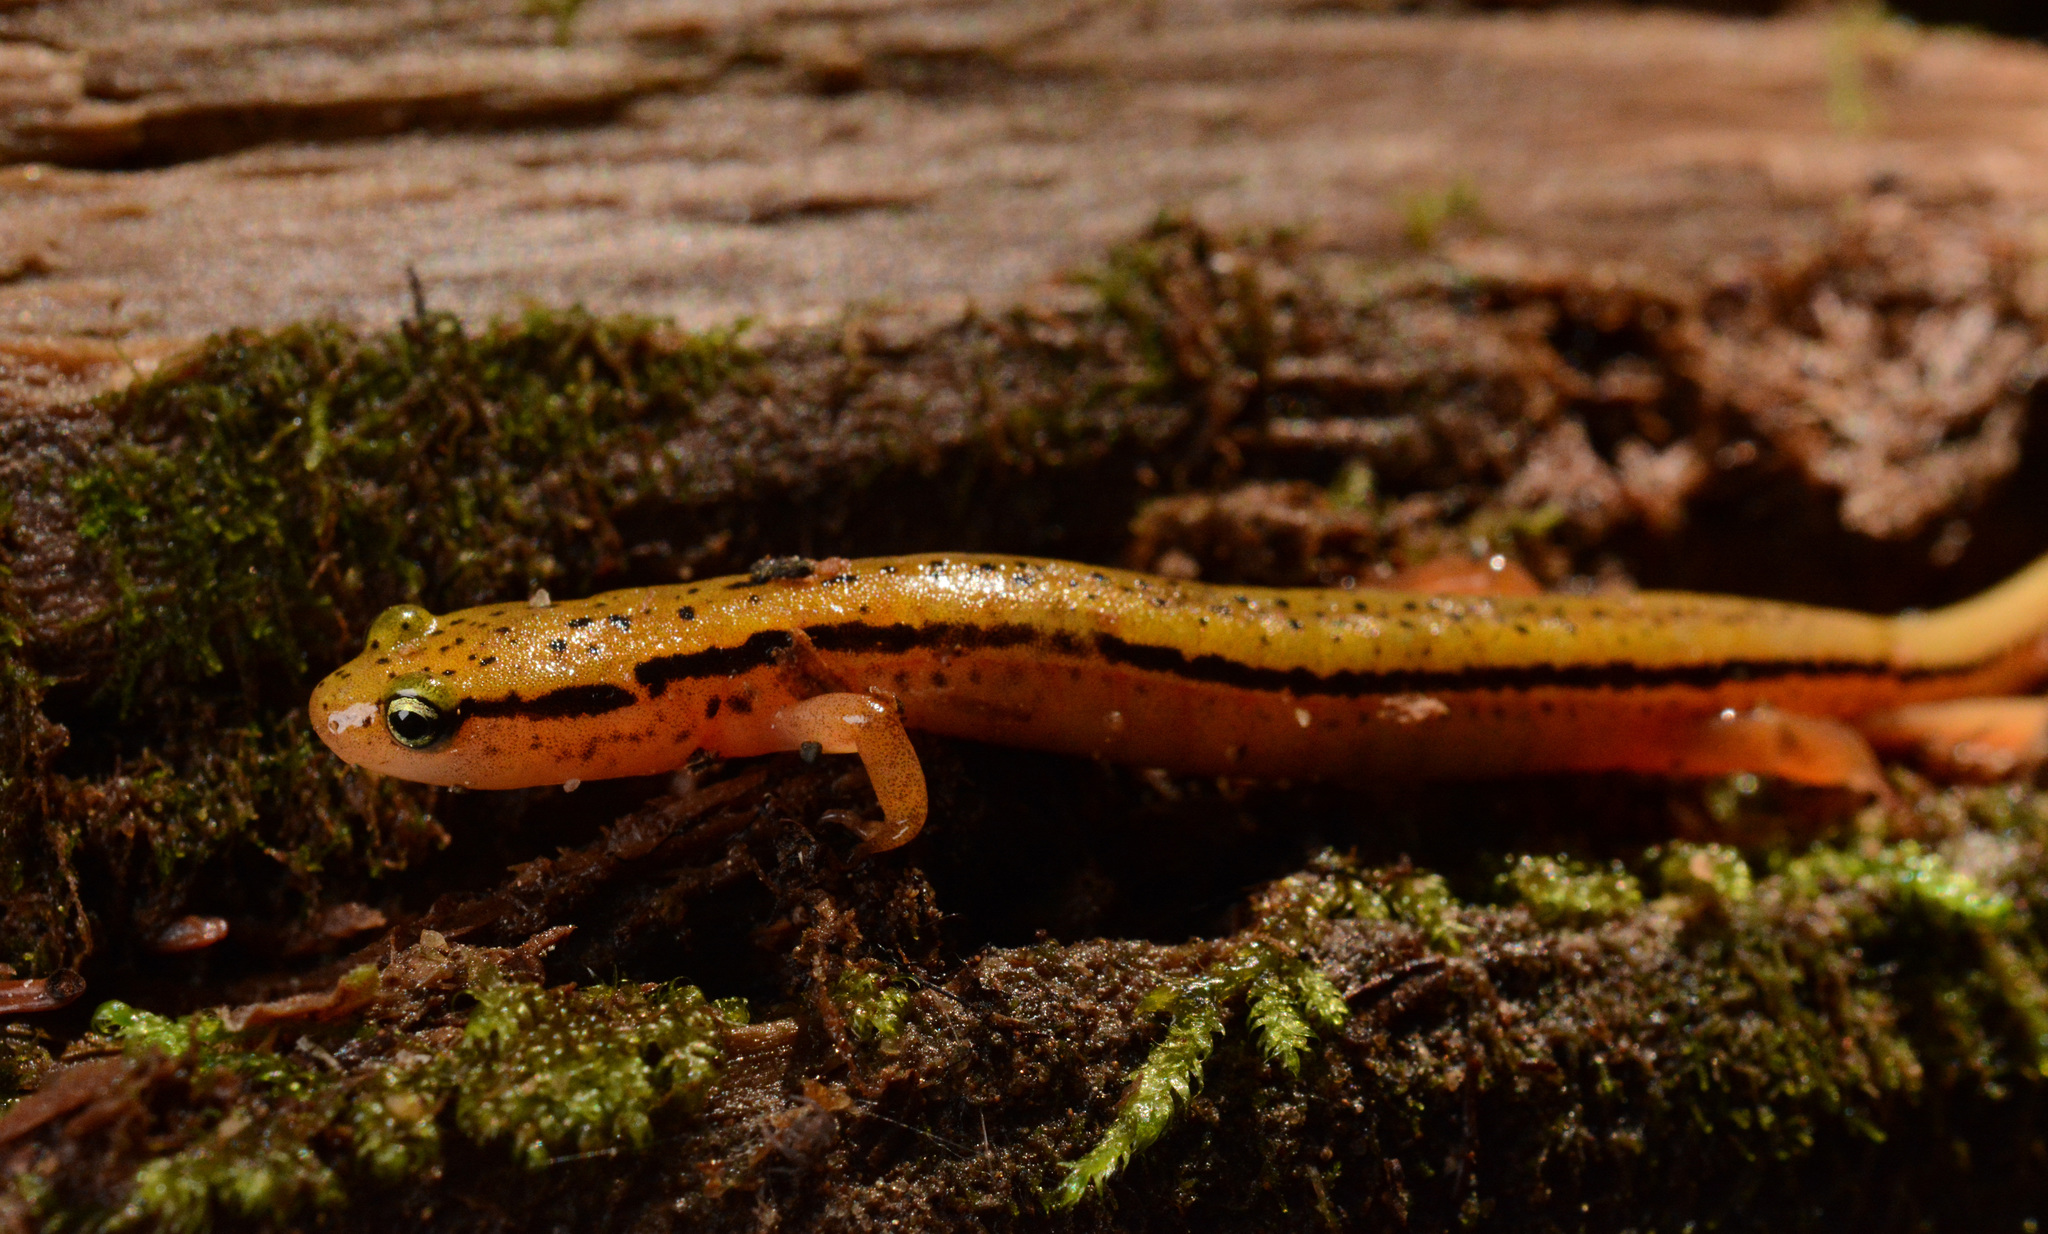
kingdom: Animalia
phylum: Chordata
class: Amphibia
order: Caudata
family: Plethodontidae
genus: Eurycea
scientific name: Eurycea wilderae
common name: Blue ridge two-lined salamander
